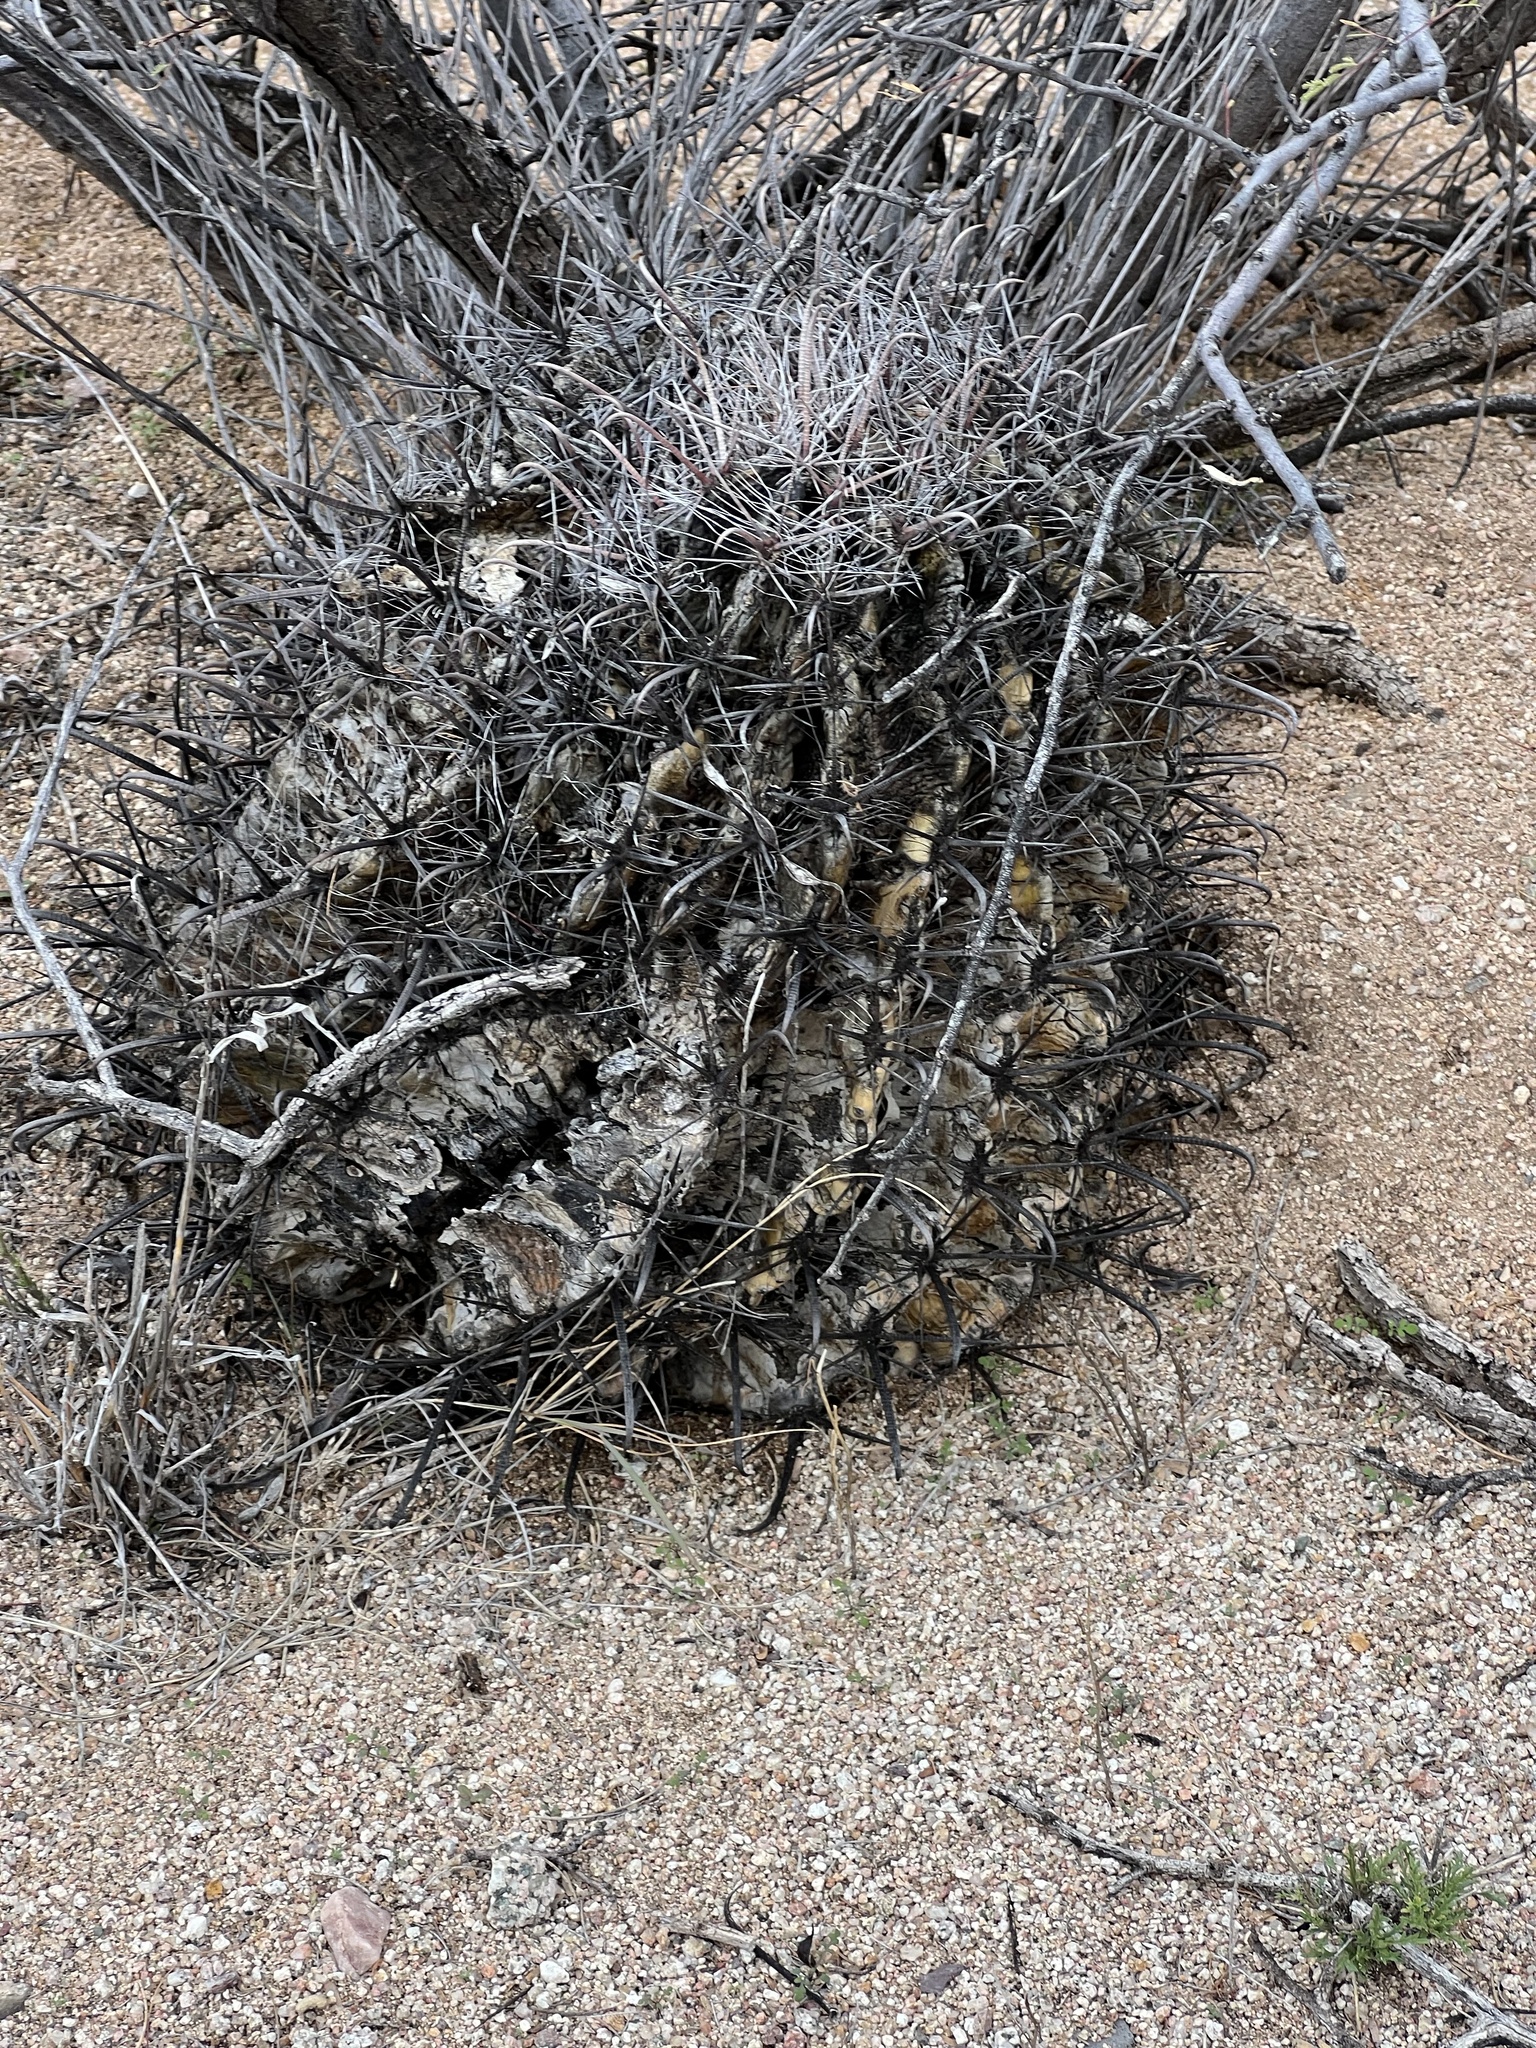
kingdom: Plantae
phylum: Tracheophyta
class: Magnoliopsida
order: Caryophyllales
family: Cactaceae
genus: Ferocactus
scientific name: Ferocactus wislizeni
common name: Candy barrel cactus
